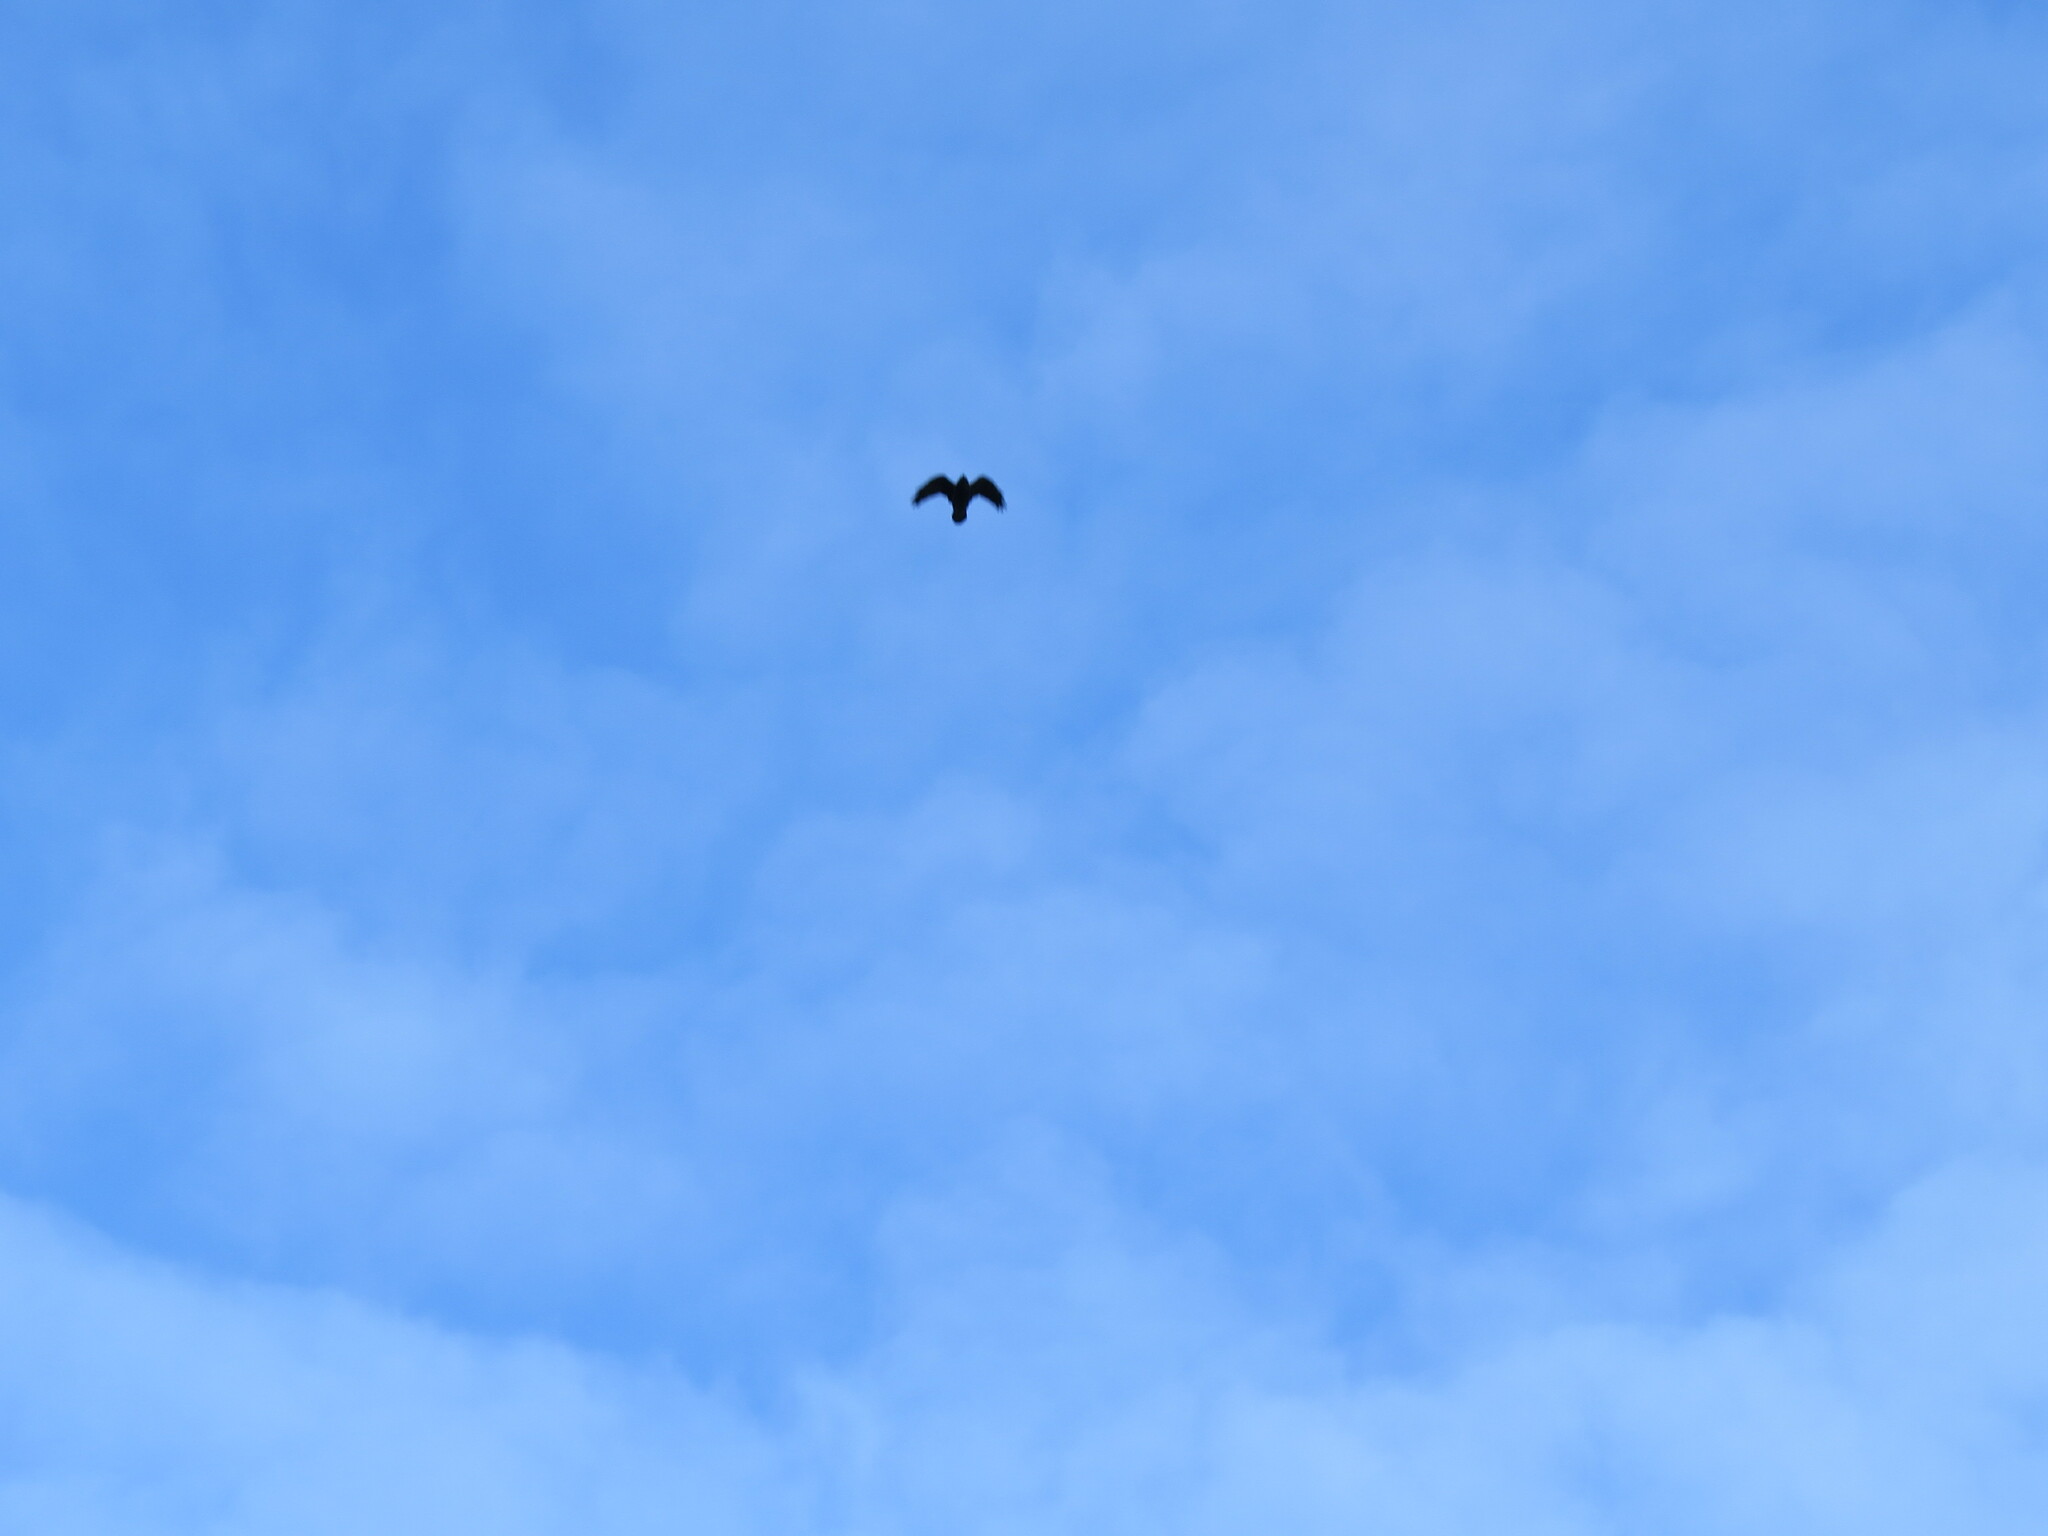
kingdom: Animalia
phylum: Chordata
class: Aves
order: Passeriformes
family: Corvidae
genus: Corvus
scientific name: Corvus corax
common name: Common raven
